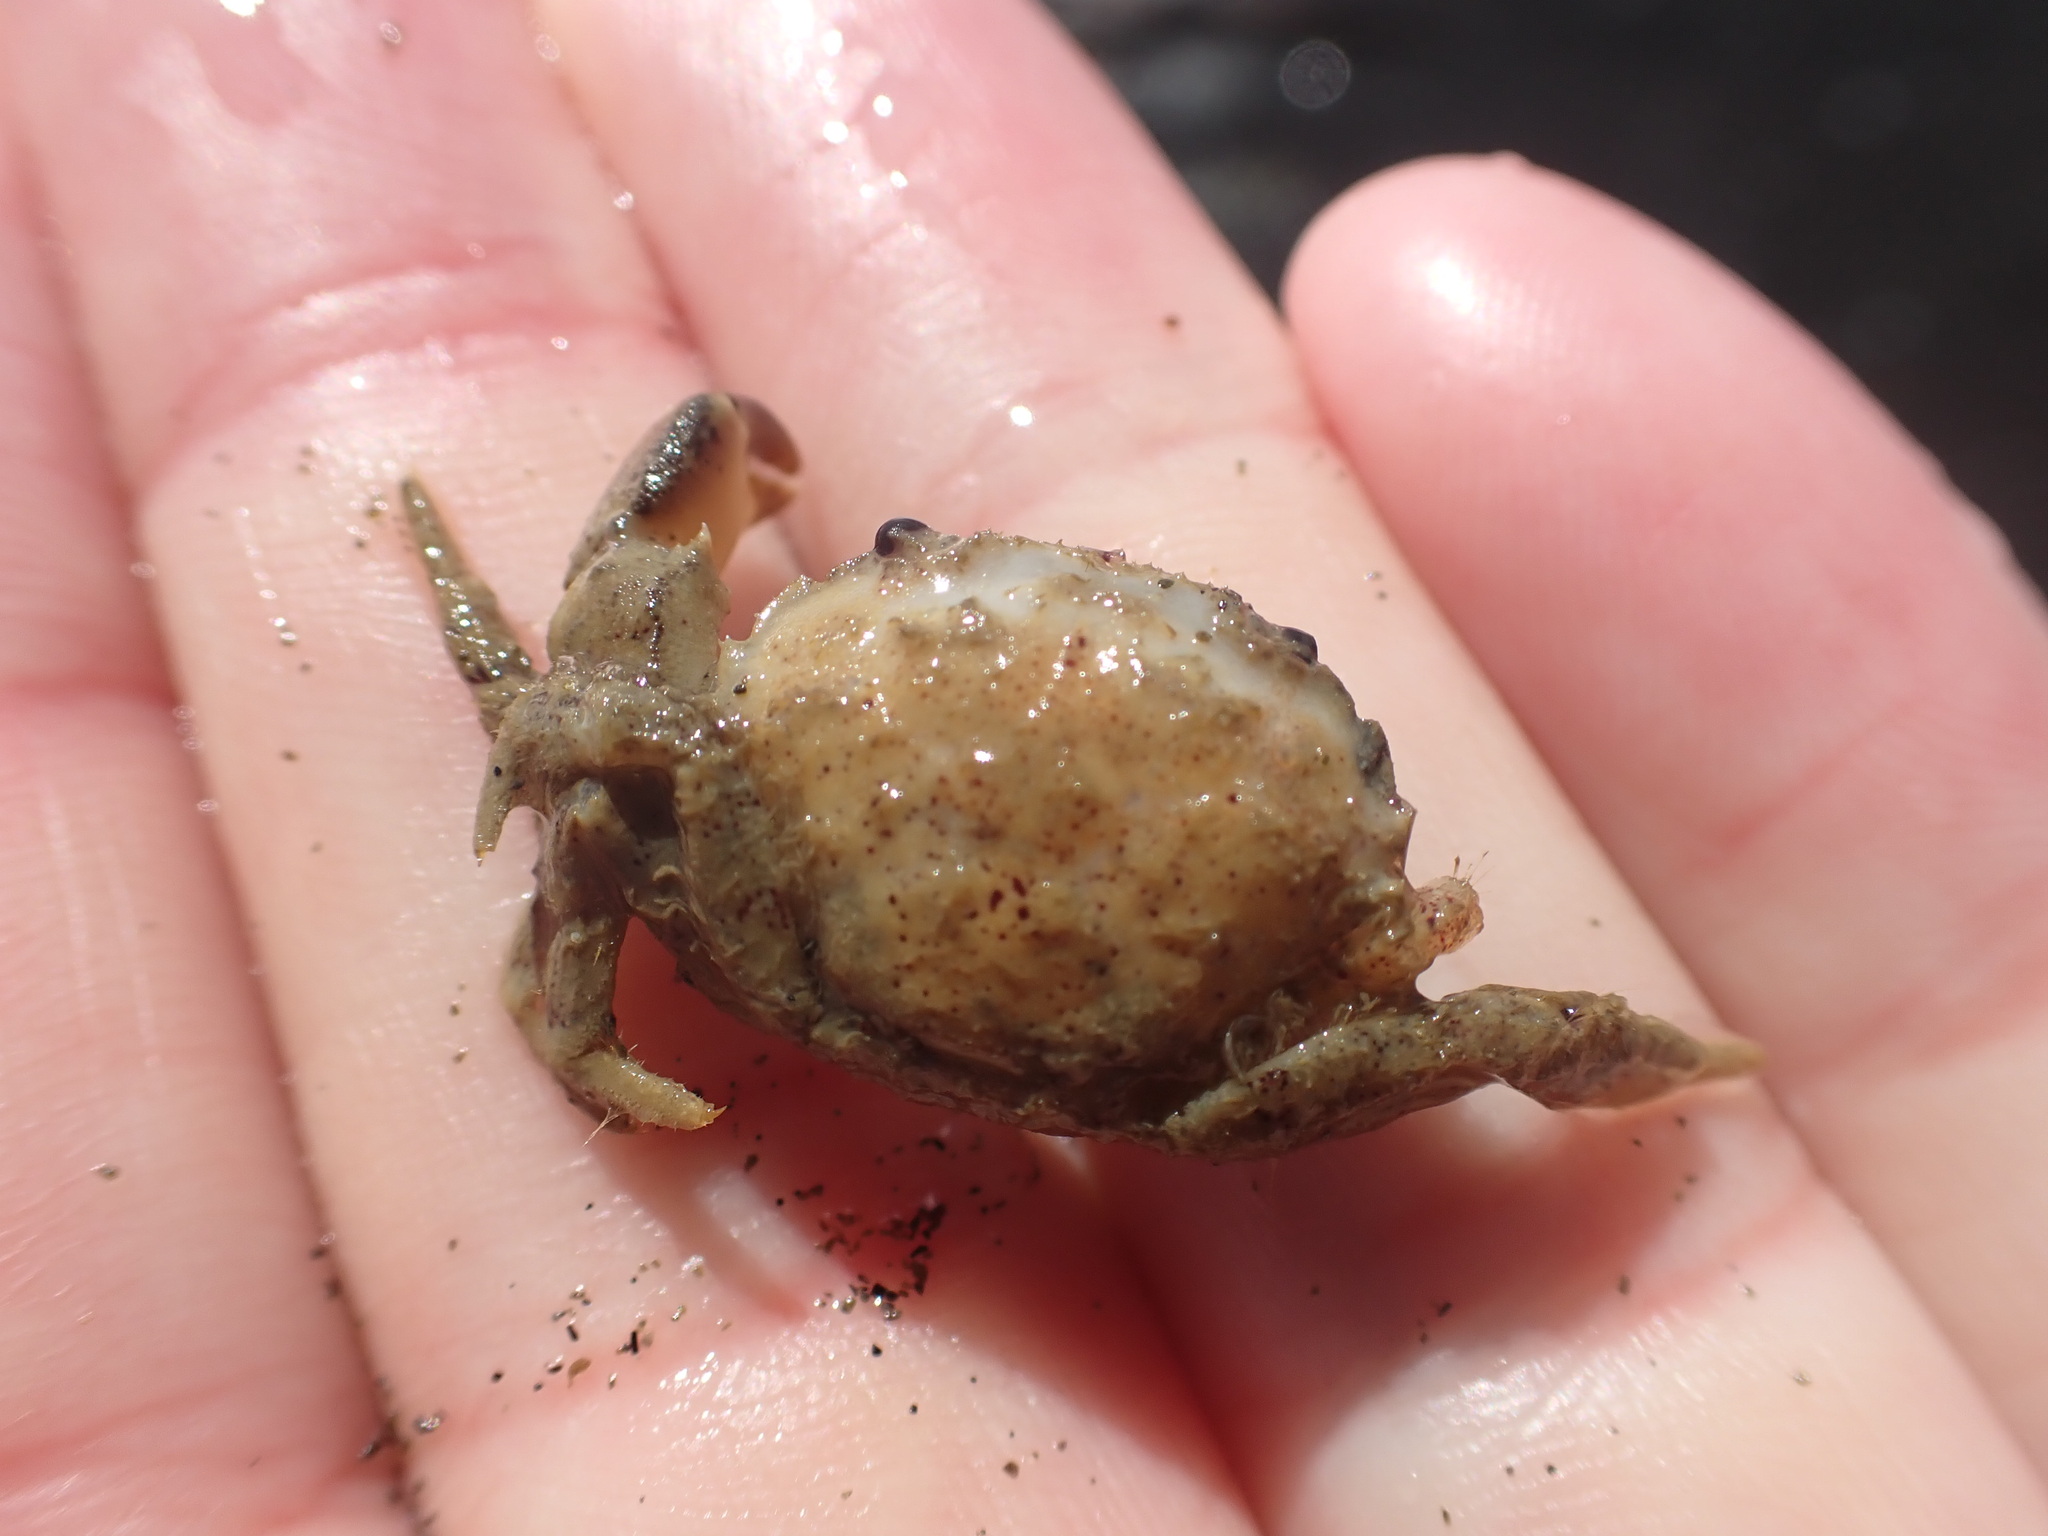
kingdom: Animalia
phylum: Arthropoda
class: Malacostraca
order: Decapoda
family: Pilumnidae
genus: Pilumnopeus
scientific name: Pilumnopeus serratifrons
